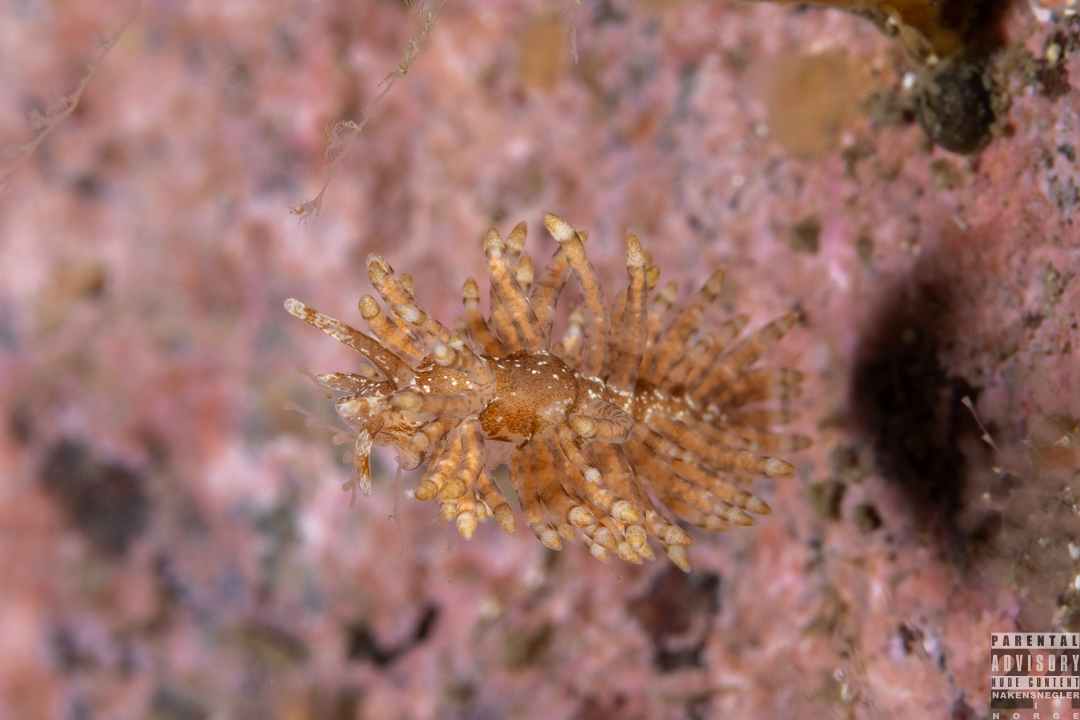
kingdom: Animalia
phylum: Mollusca
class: Gastropoda
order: Nudibranchia
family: Eubranchidae
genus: Eubranchus
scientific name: Eubranchus vittatus
